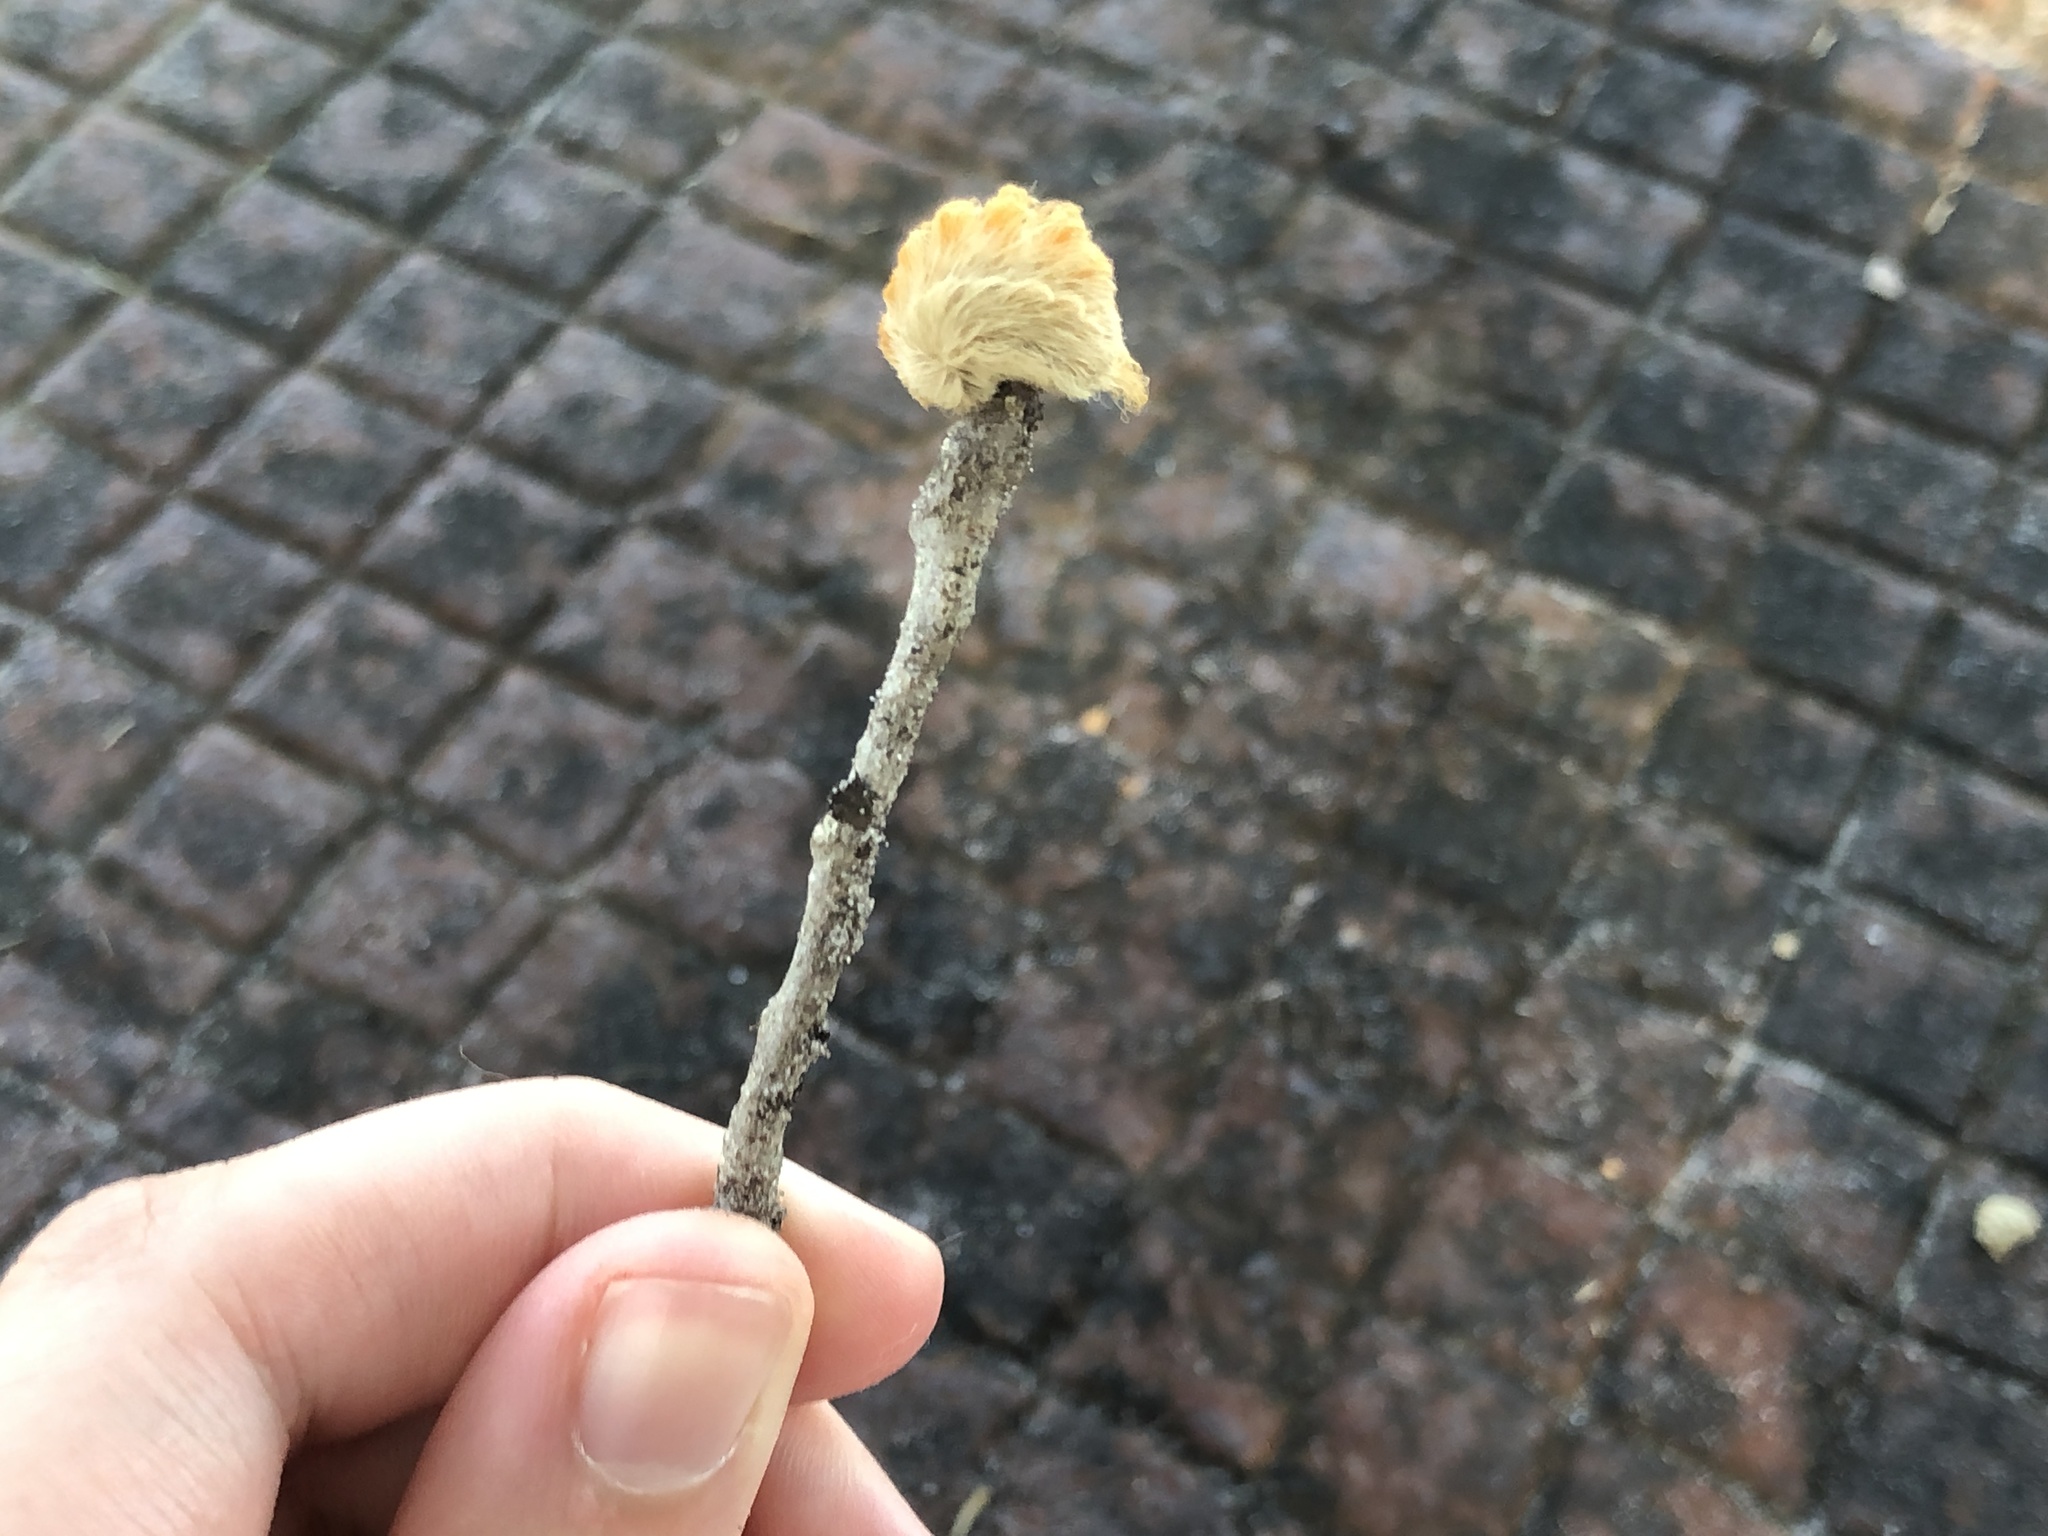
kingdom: Animalia
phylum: Arthropoda
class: Insecta
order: Lepidoptera
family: Megalopygidae
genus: Megalopyge
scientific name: Megalopyge opercularis
